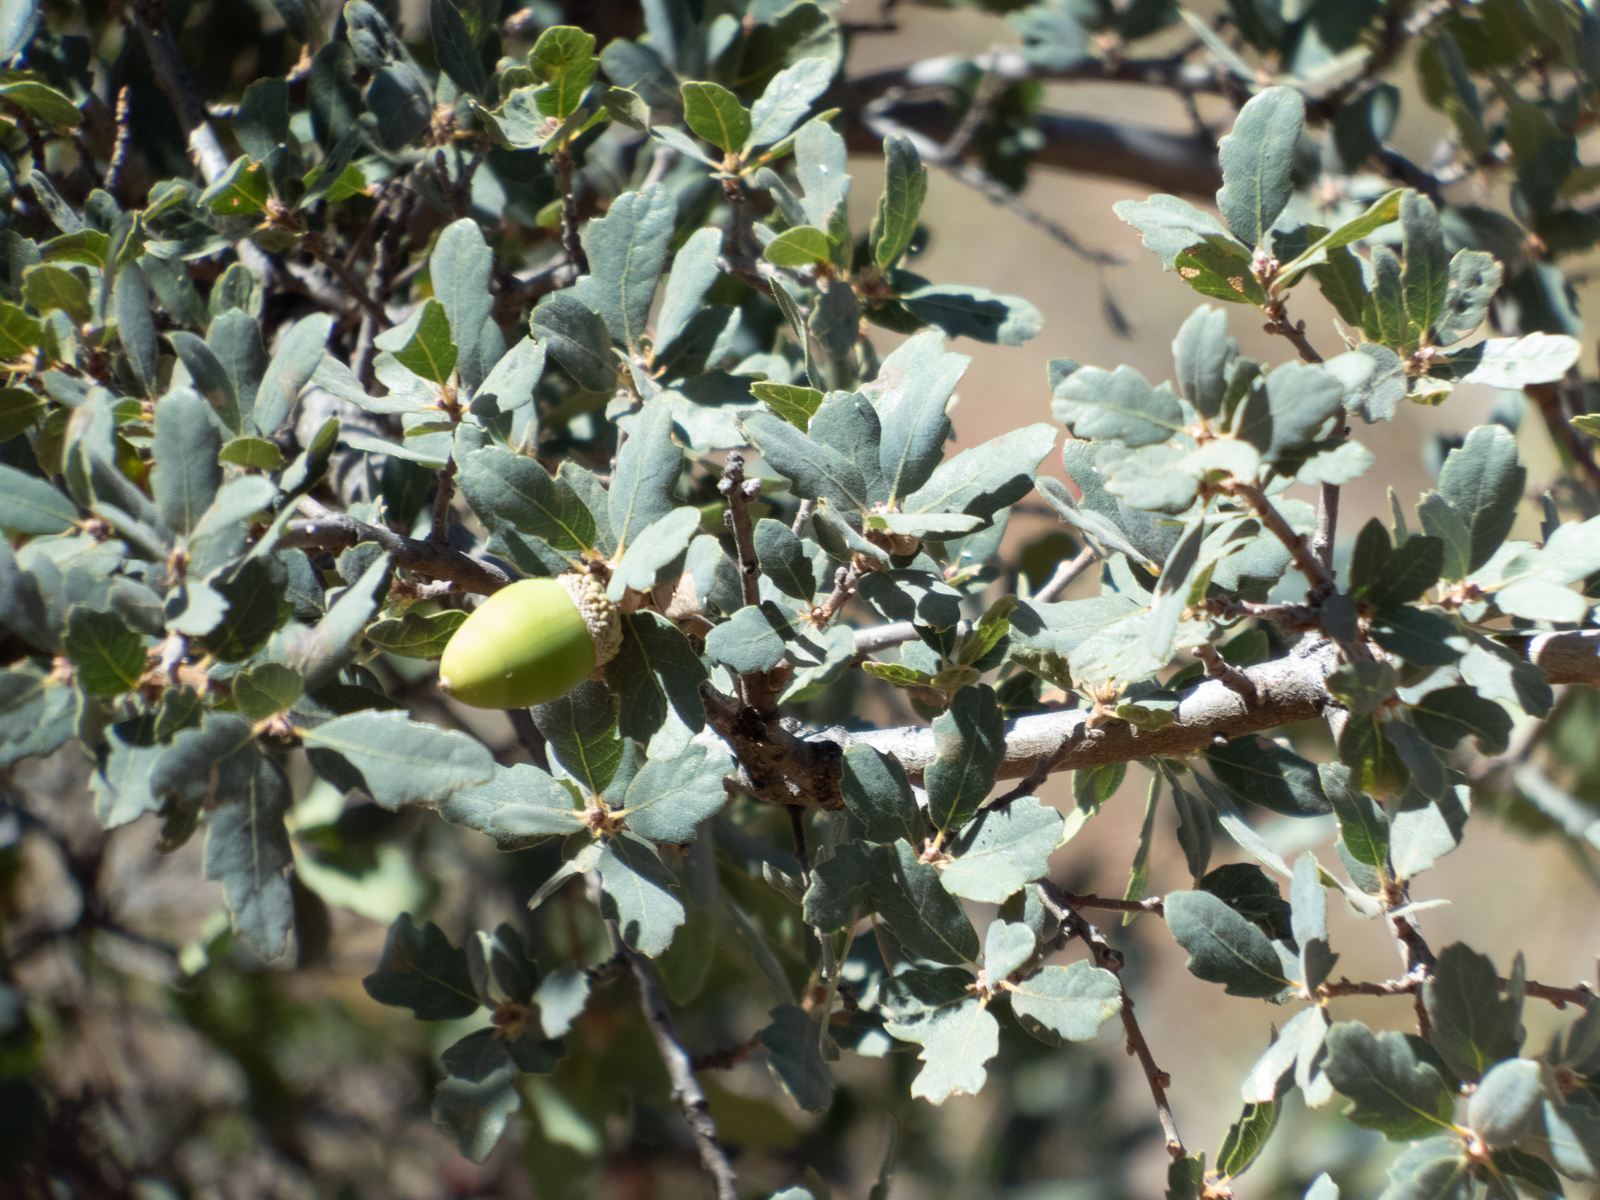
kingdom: Plantae
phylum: Tracheophyta
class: Magnoliopsida
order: Fagales
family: Fagaceae
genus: Quercus
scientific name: Quercus douglasii
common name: Blue oak
